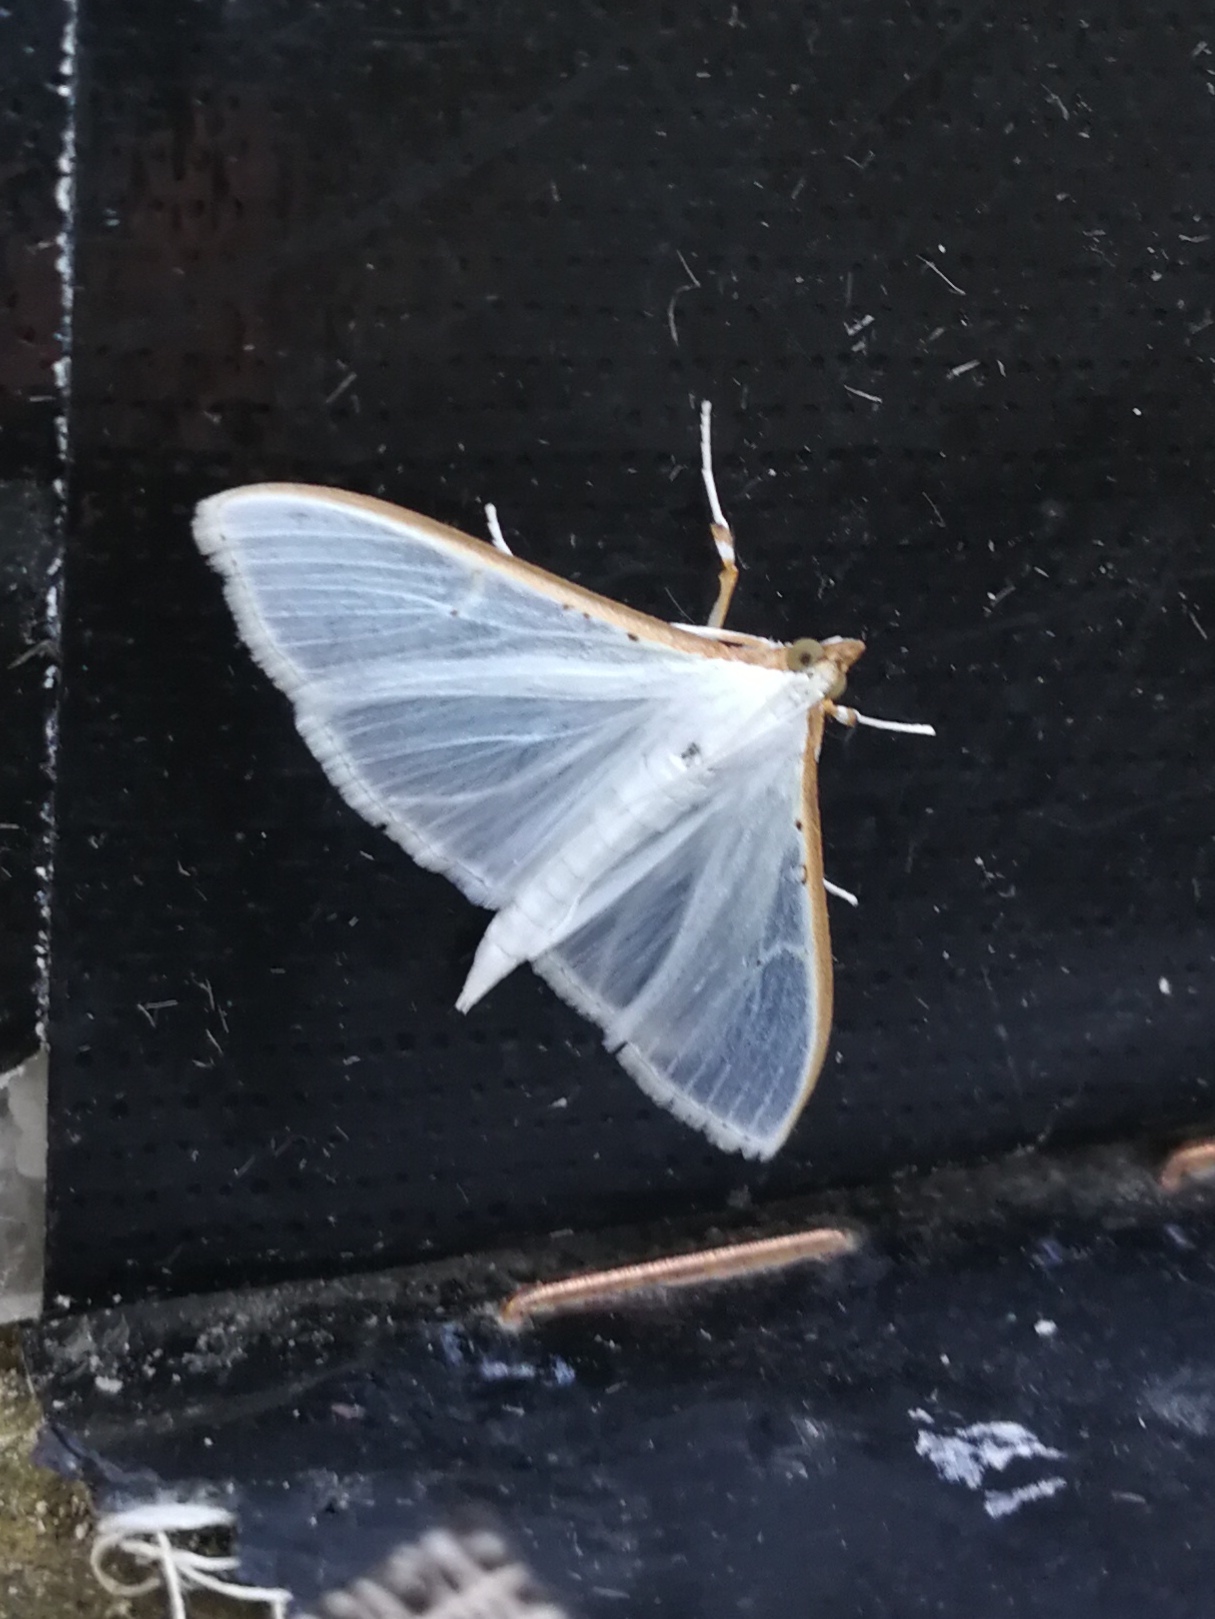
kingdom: Animalia
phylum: Arthropoda
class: Insecta
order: Lepidoptera
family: Crambidae
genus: Palpita
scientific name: Palpita vitrealis
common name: Olive-tree pearl
